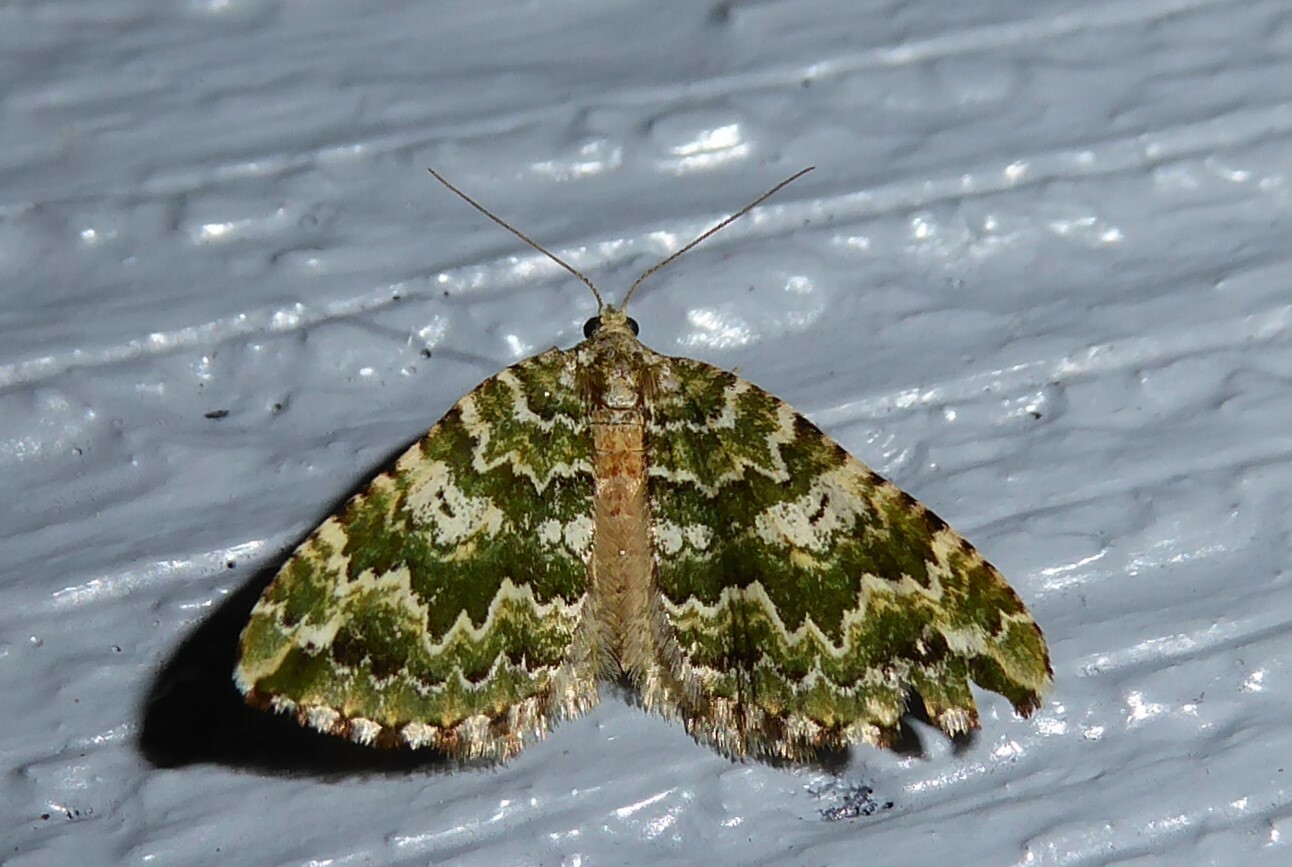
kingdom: Animalia
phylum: Arthropoda
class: Insecta
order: Lepidoptera
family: Geometridae
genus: Asaphodes
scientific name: Asaphodes beata
